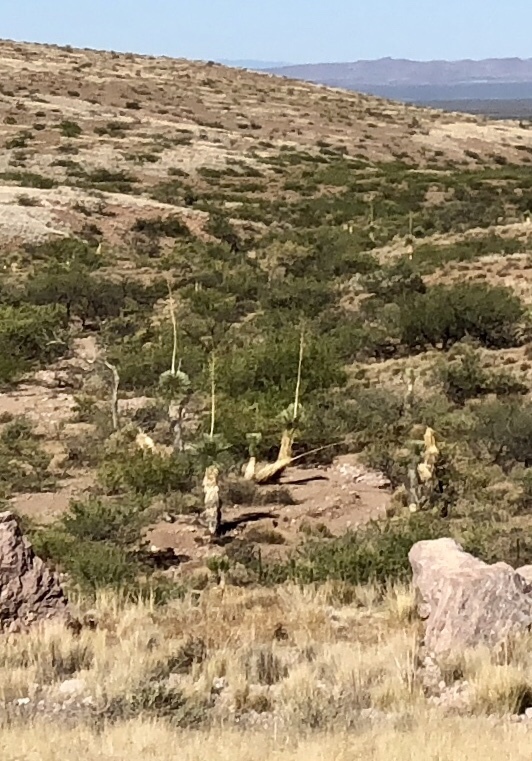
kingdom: Plantae
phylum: Tracheophyta
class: Liliopsida
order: Asparagales
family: Asparagaceae
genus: Yucca
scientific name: Yucca elata
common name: Palmella
